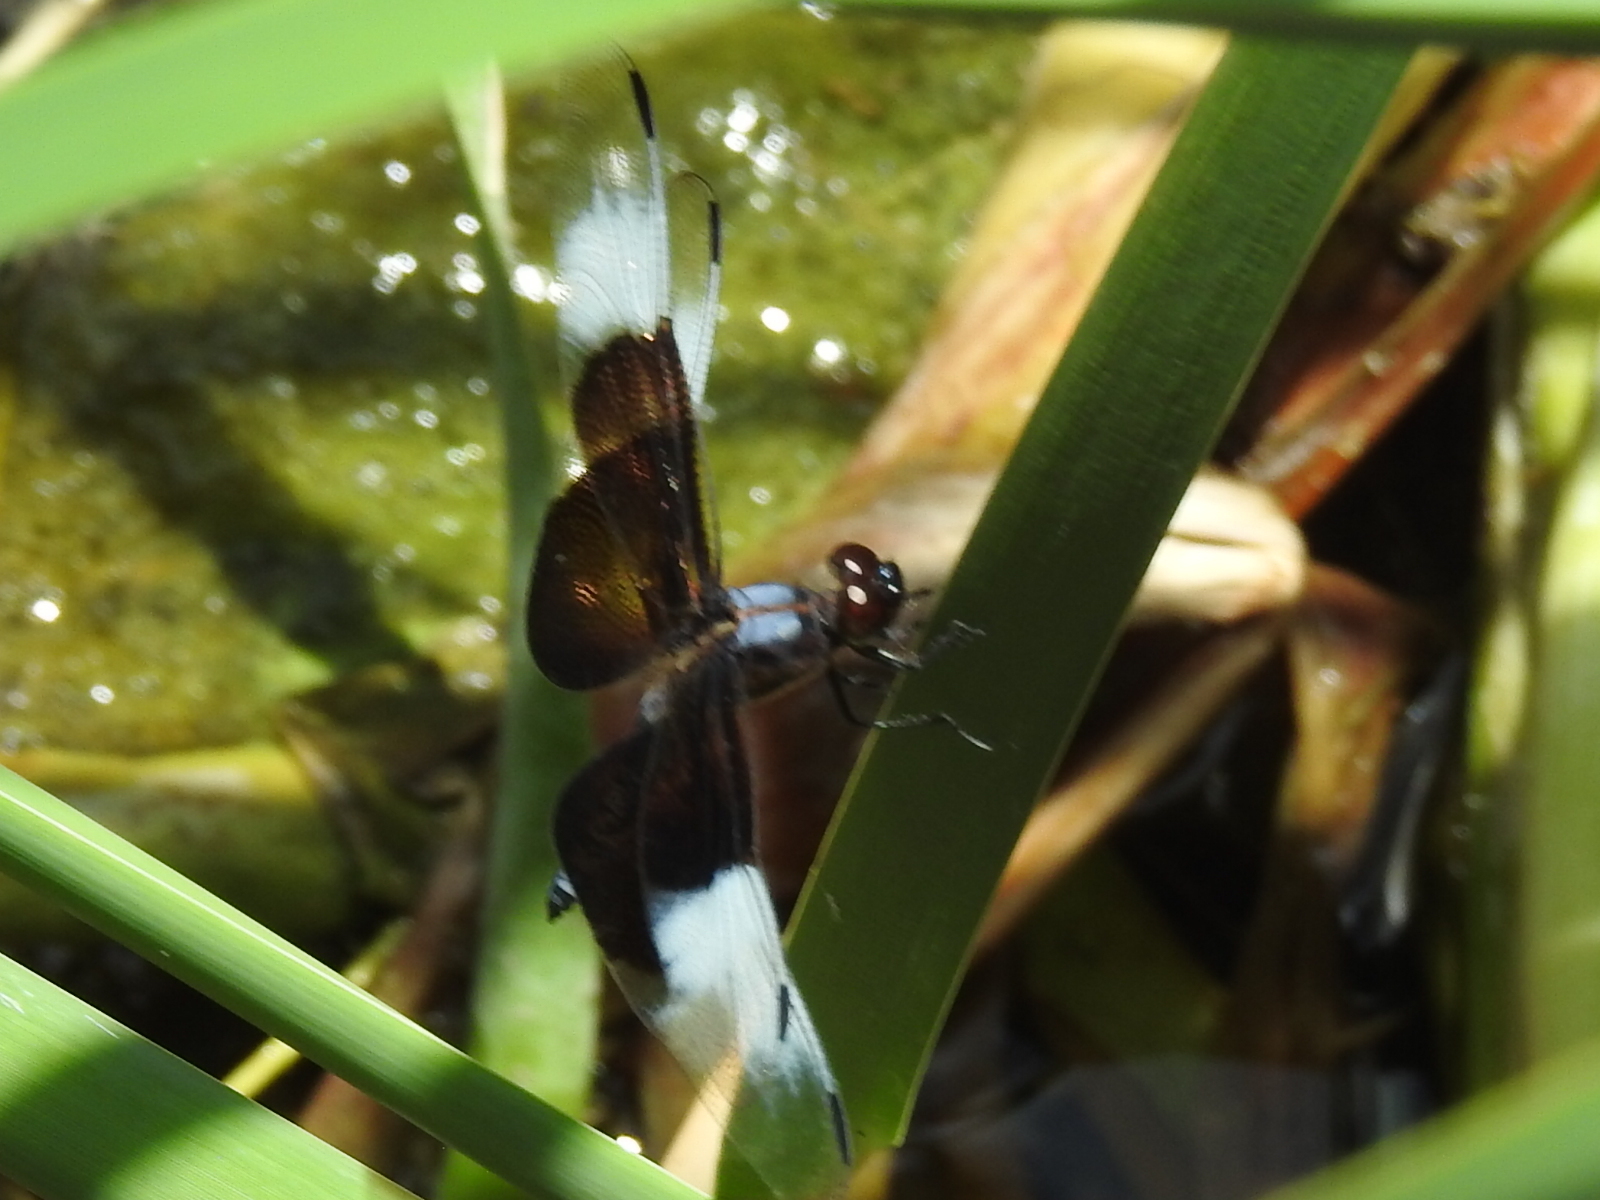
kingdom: Animalia
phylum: Arthropoda
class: Insecta
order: Odonata
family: Libellulidae
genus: Libellula
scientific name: Libellula luctuosa
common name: Widow skimmer
